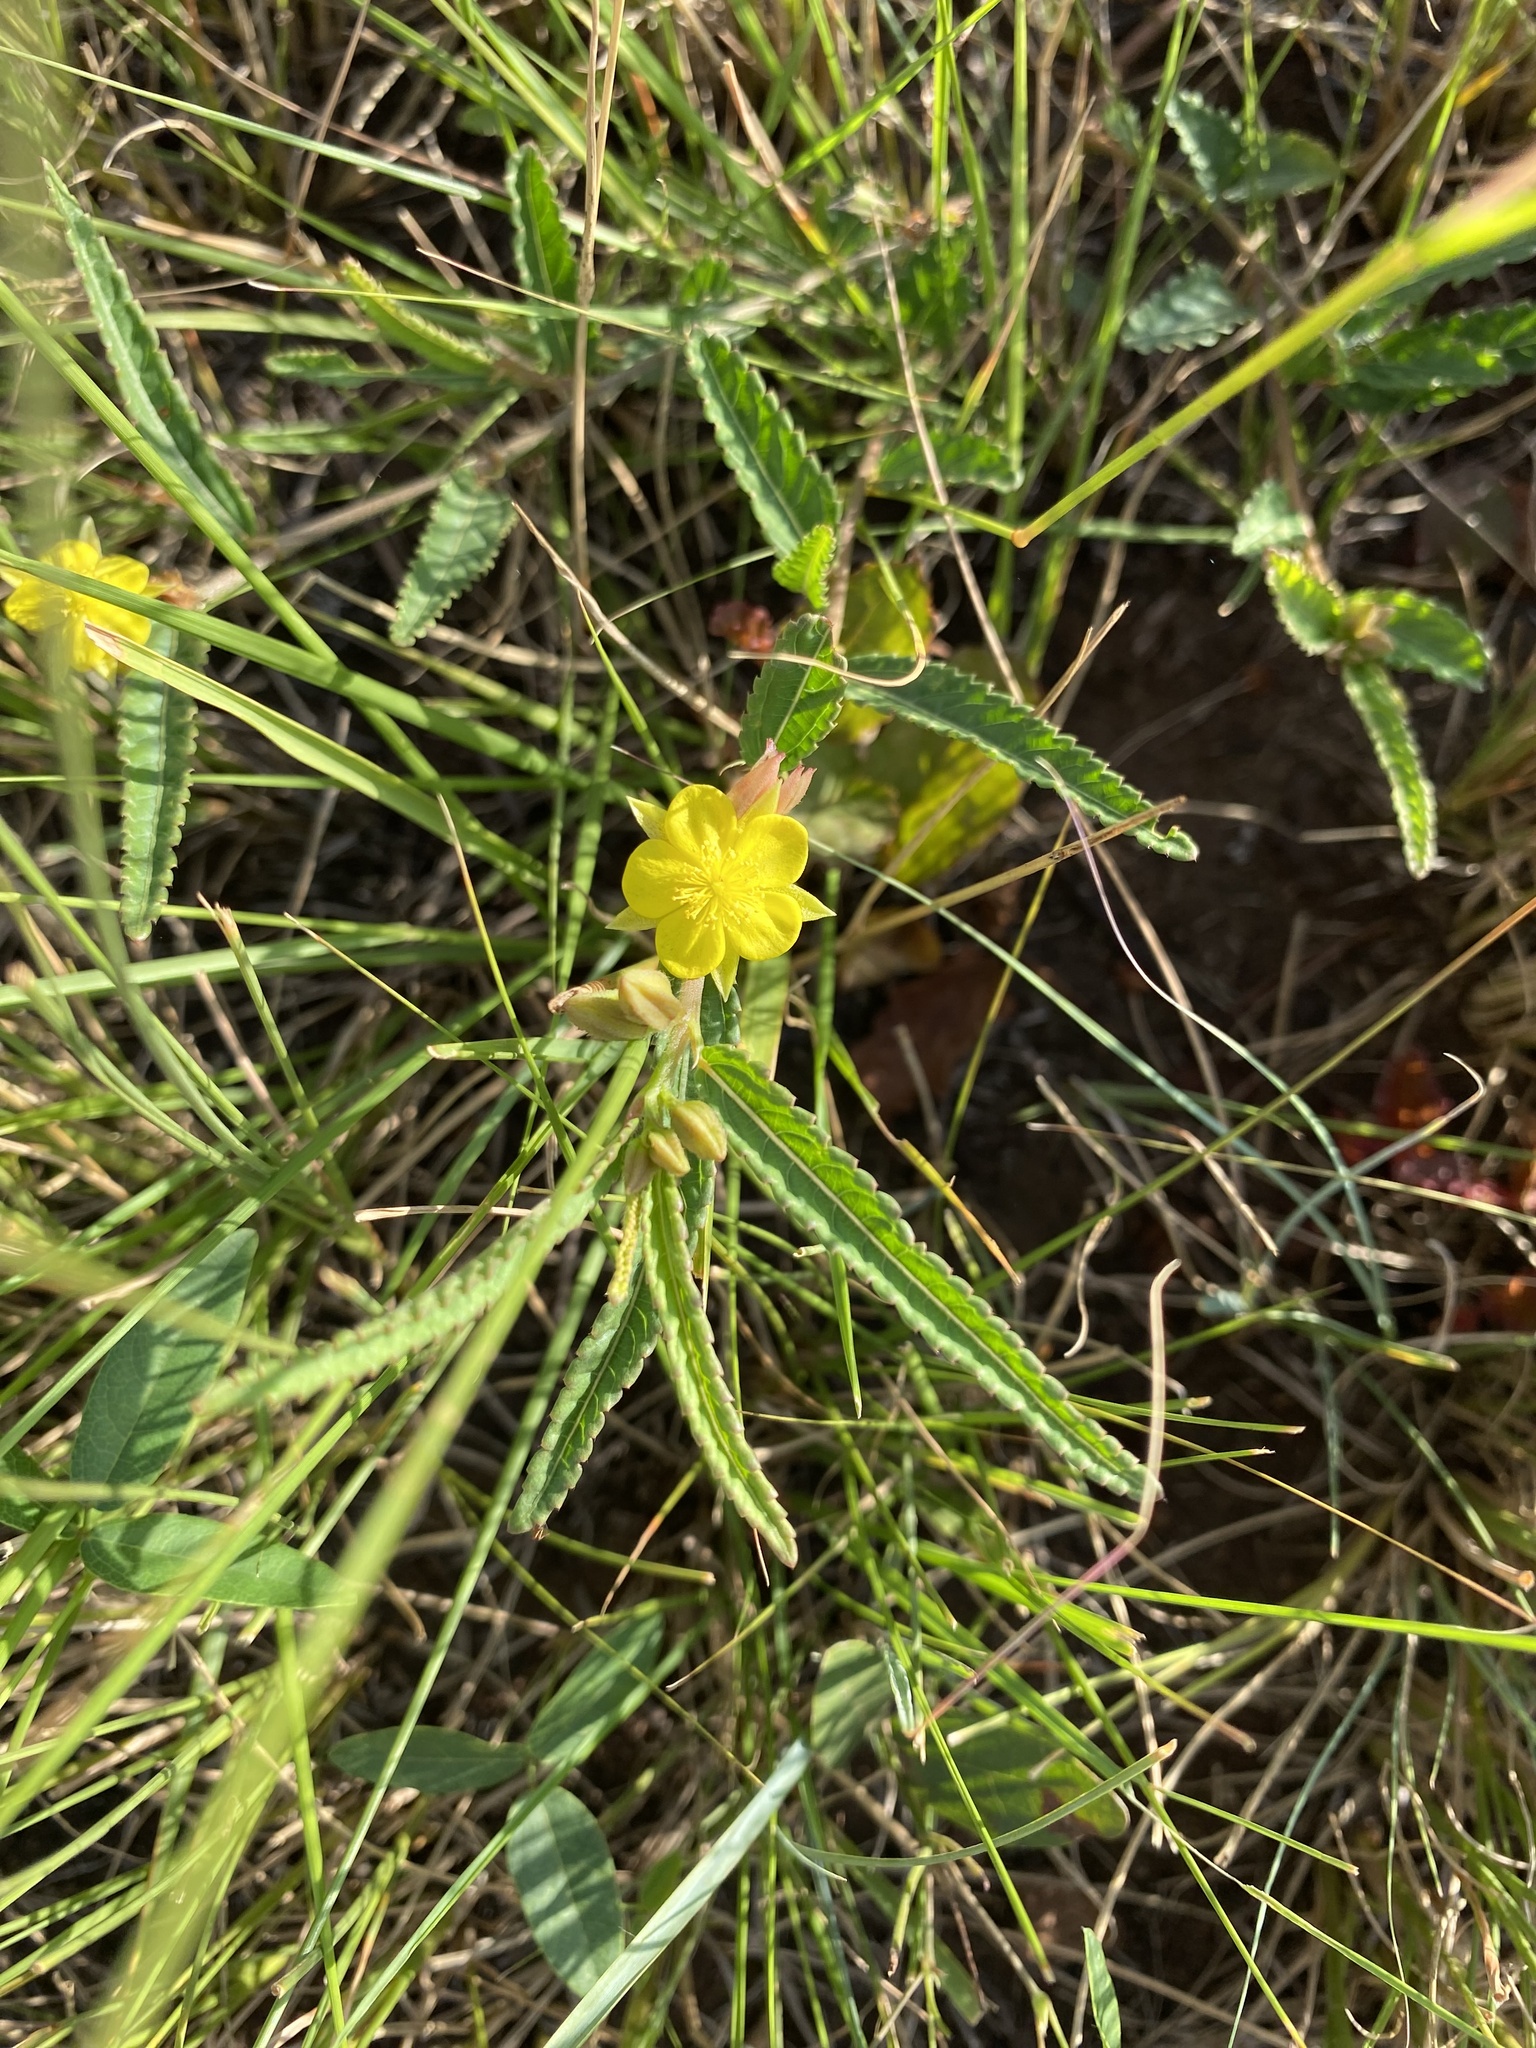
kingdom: Plantae
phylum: Tracheophyta
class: Magnoliopsida
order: Malvales
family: Malvaceae
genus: Corchorus
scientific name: Corchorus confusus
